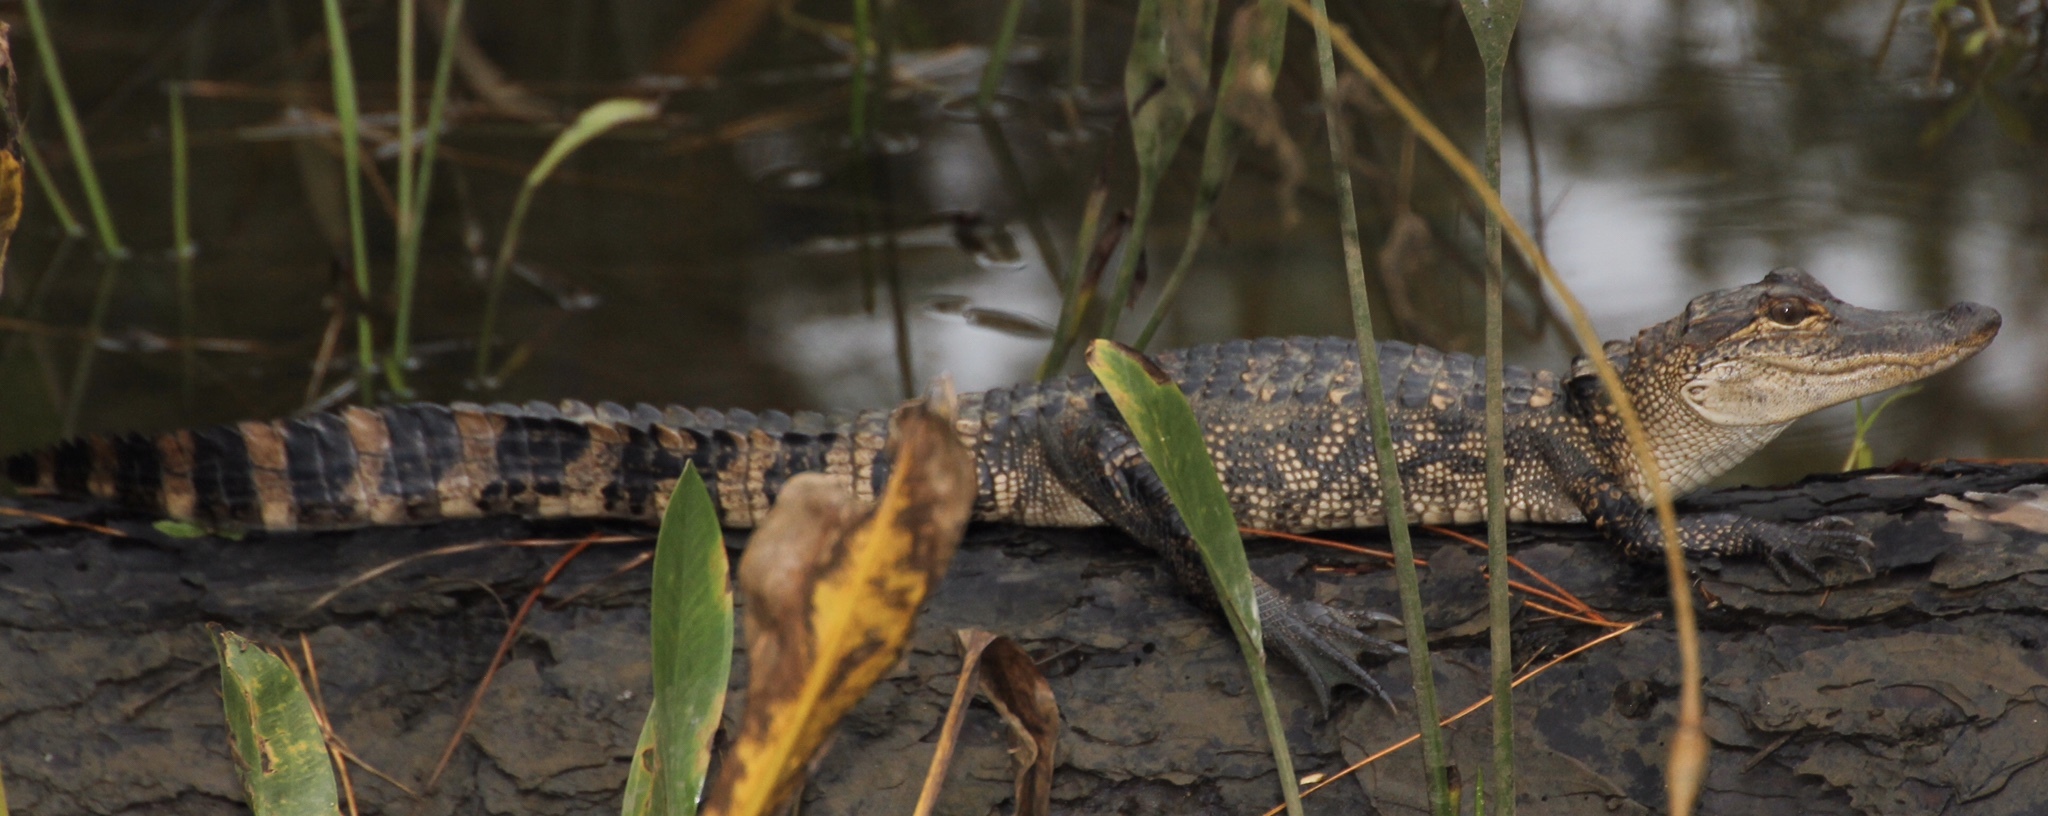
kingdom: Animalia
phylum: Chordata
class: Crocodylia
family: Alligatoridae
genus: Alligator
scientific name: Alligator mississippiensis
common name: American alligator
